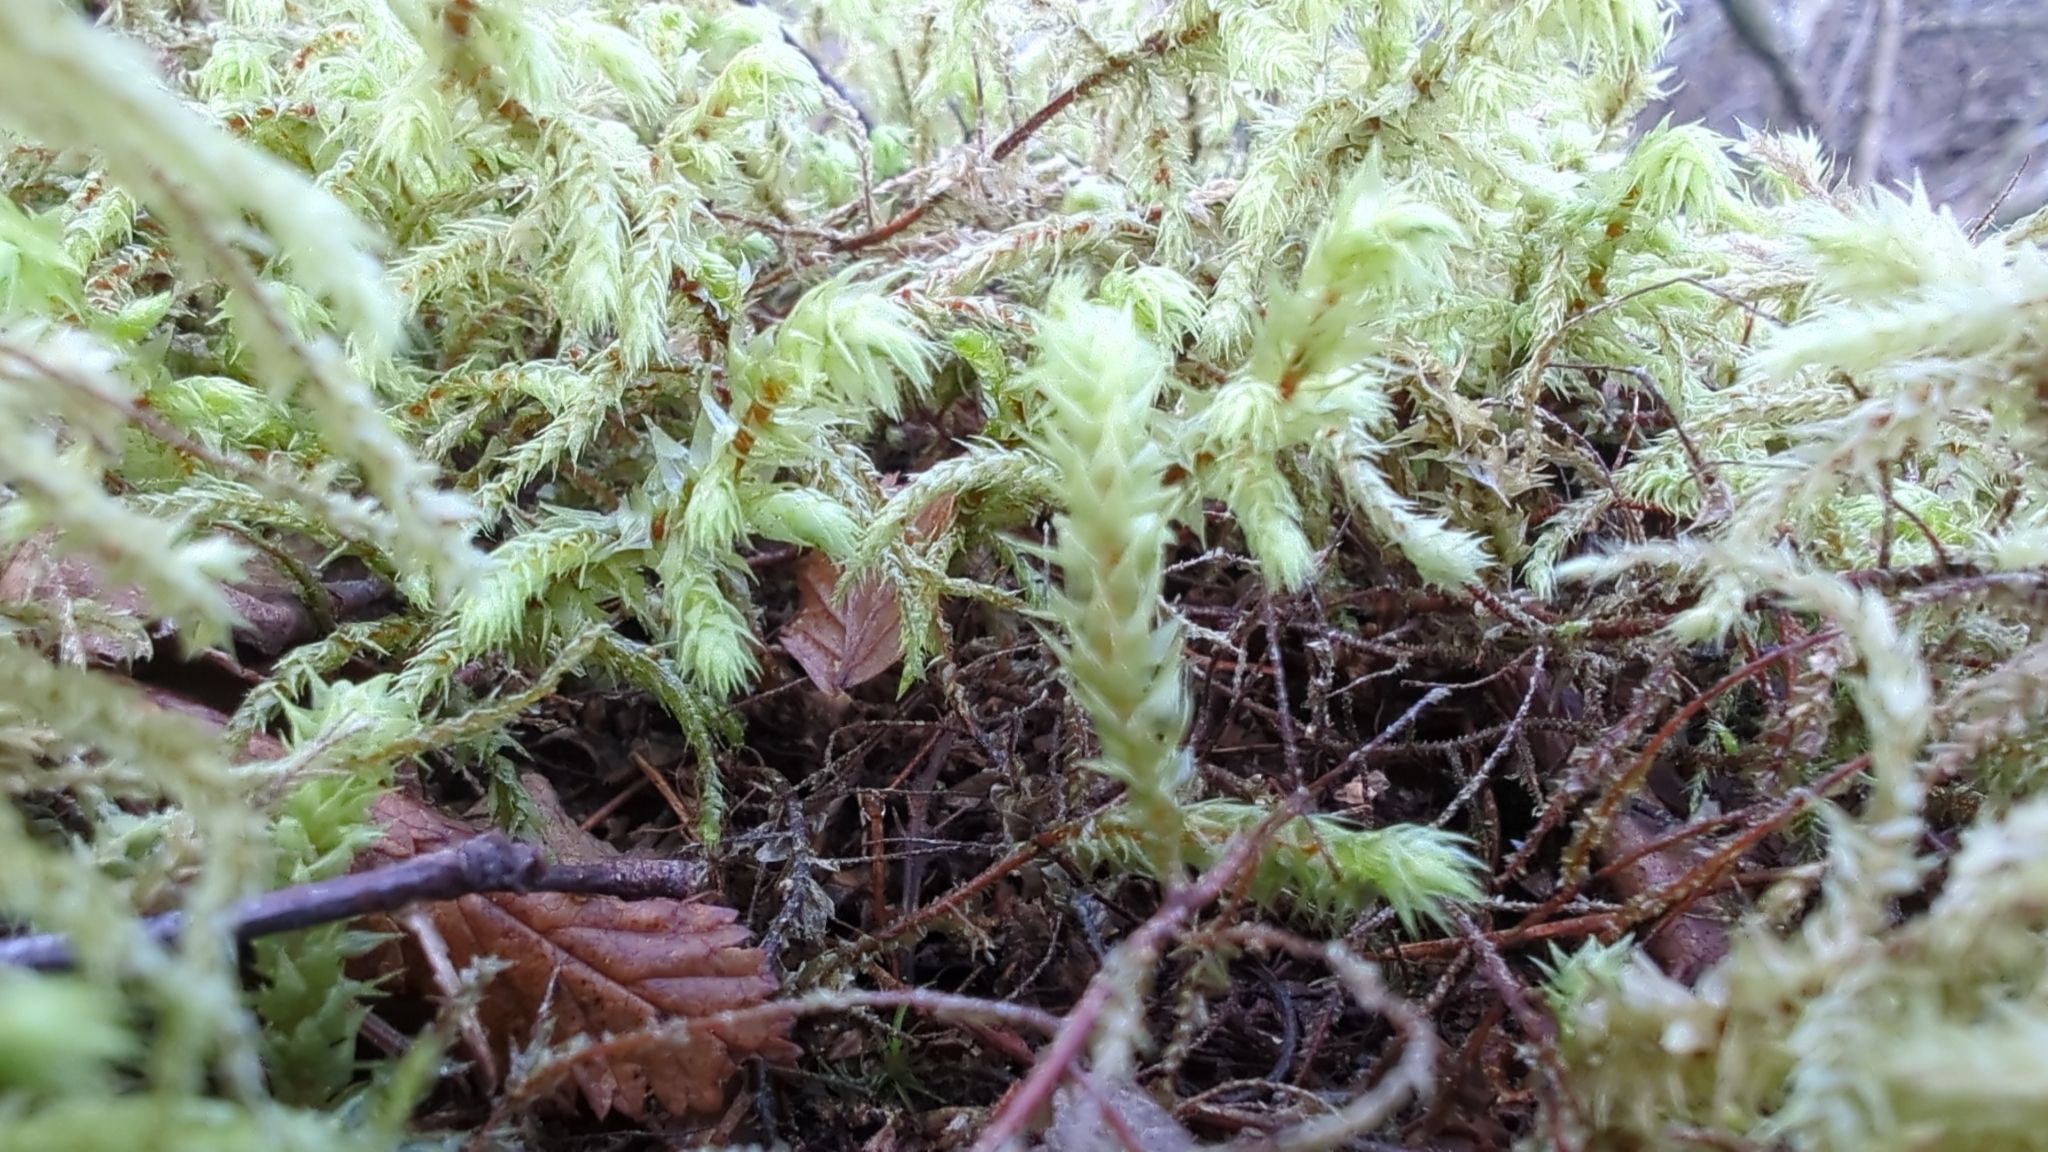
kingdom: Plantae
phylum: Bryophyta
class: Bryopsida
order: Hypnales
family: Hylocomiaceae
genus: Hylocomiadelphus
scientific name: Hylocomiadelphus triquetrus
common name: Rough goose neck moss
